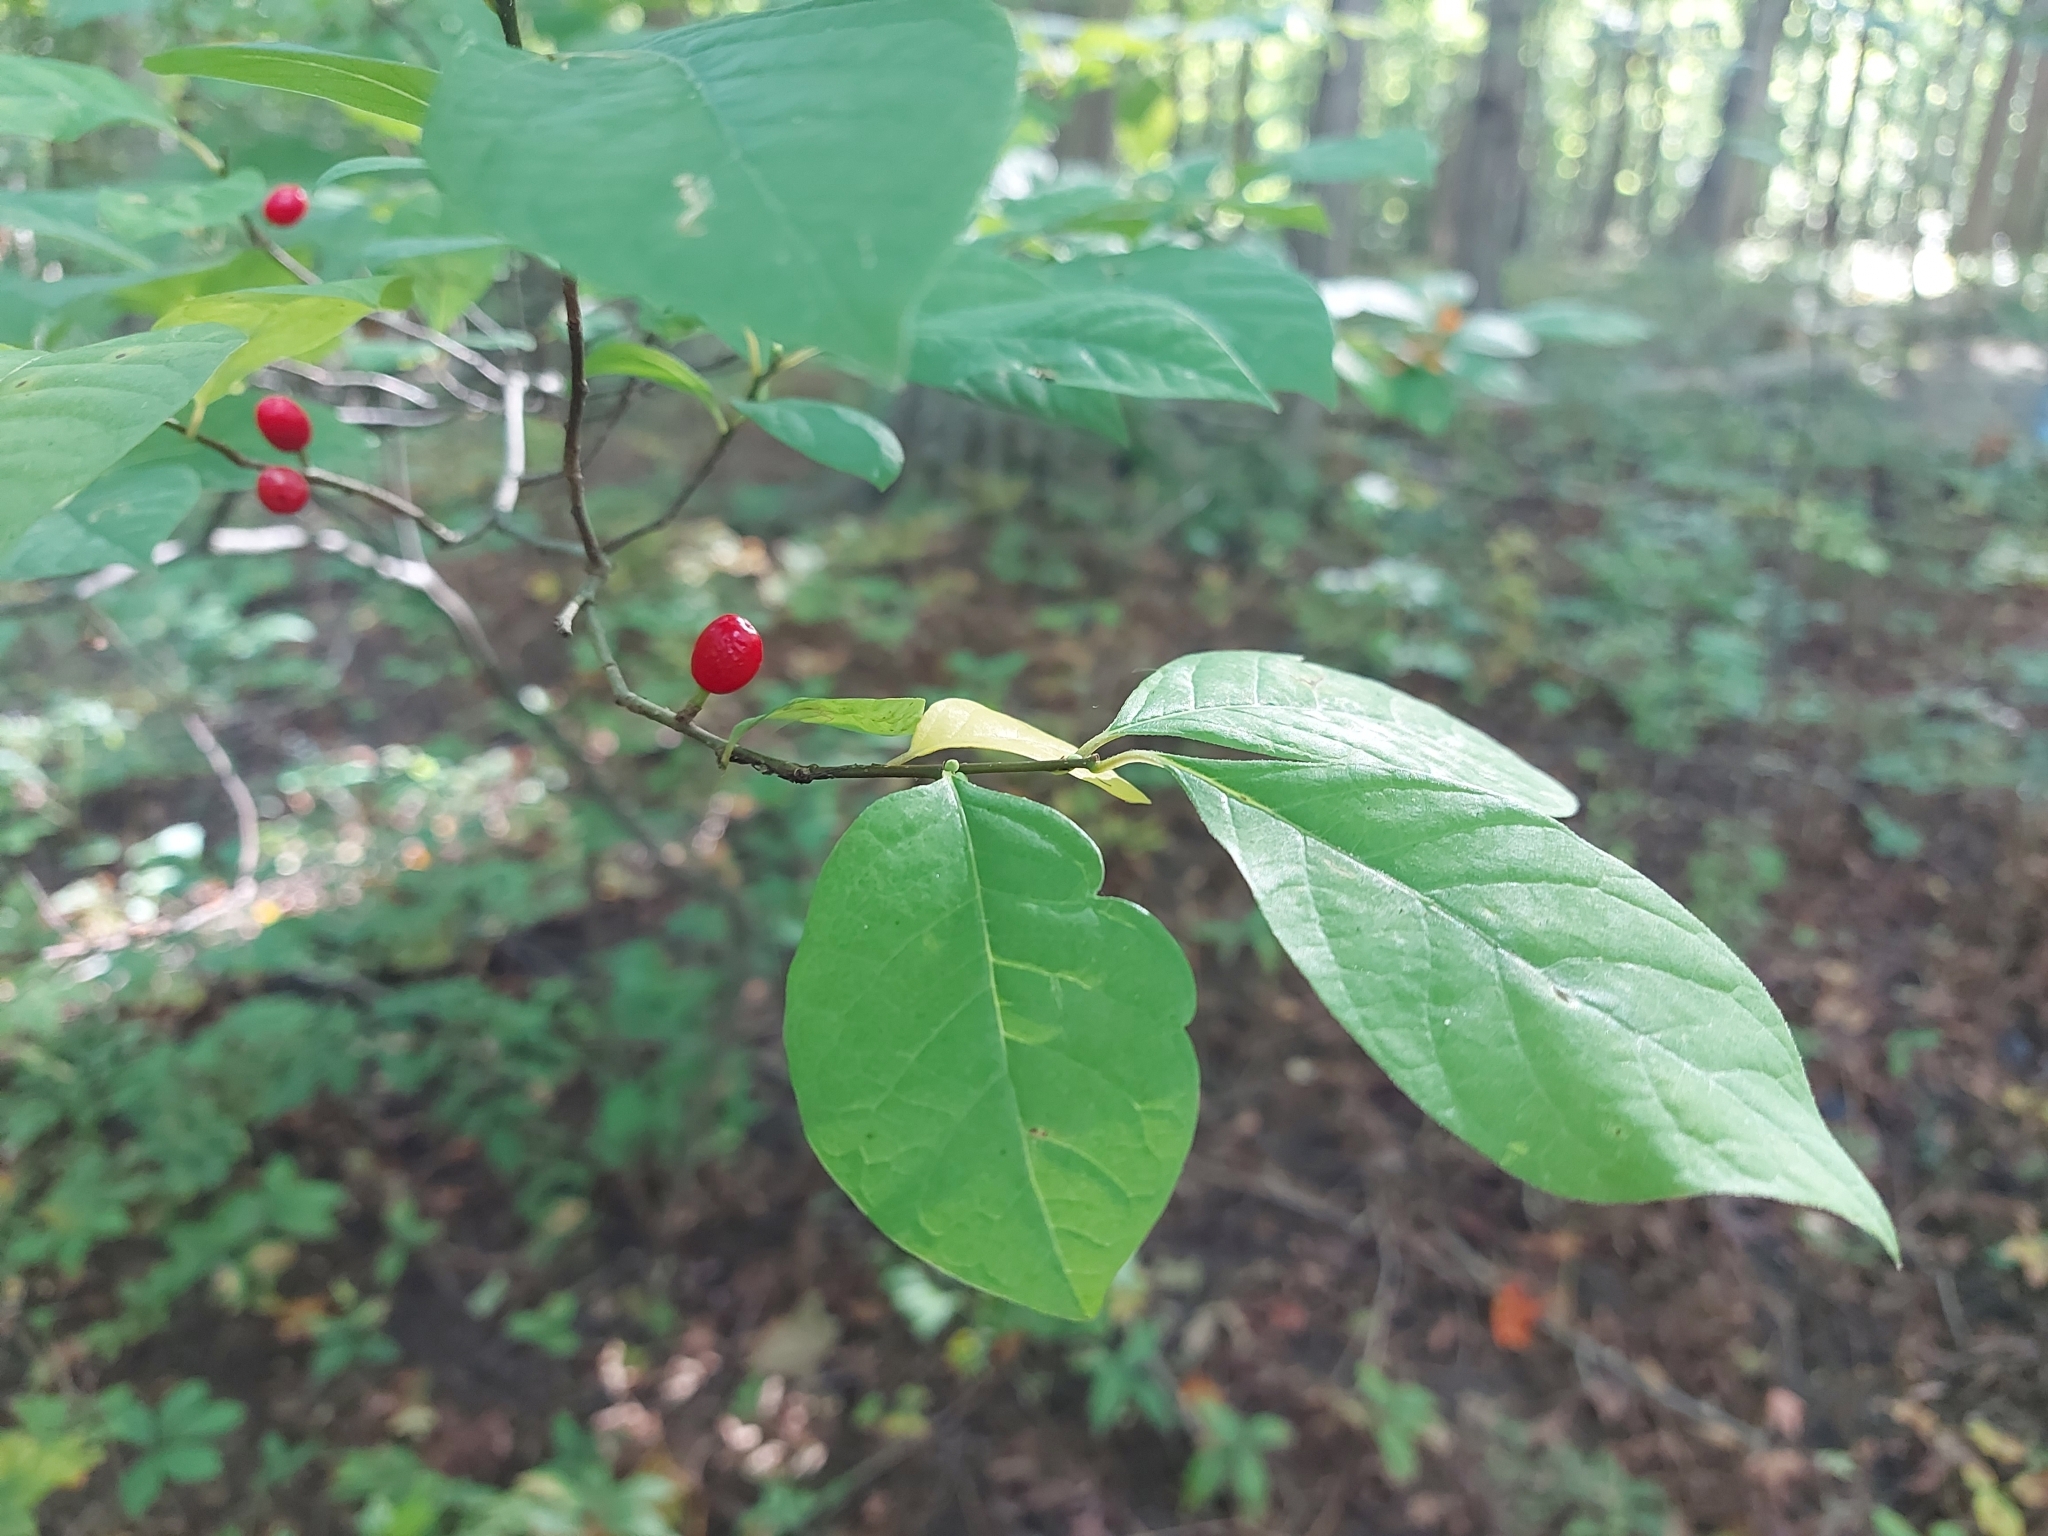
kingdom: Plantae
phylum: Tracheophyta
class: Magnoliopsida
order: Laurales
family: Lauraceae
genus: Lindera
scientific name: Lindera benzoin
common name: Spicebush
